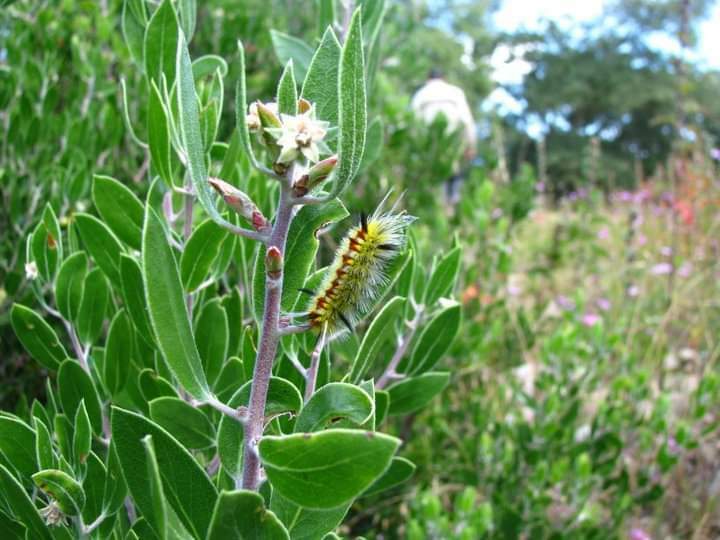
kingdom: Plantae
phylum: Tracheophyta
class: Magnoliopsida
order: Ericales
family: Ericaceae
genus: Arctostaphylos
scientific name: Arctostaphylos pungens
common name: Mexican manzanita
